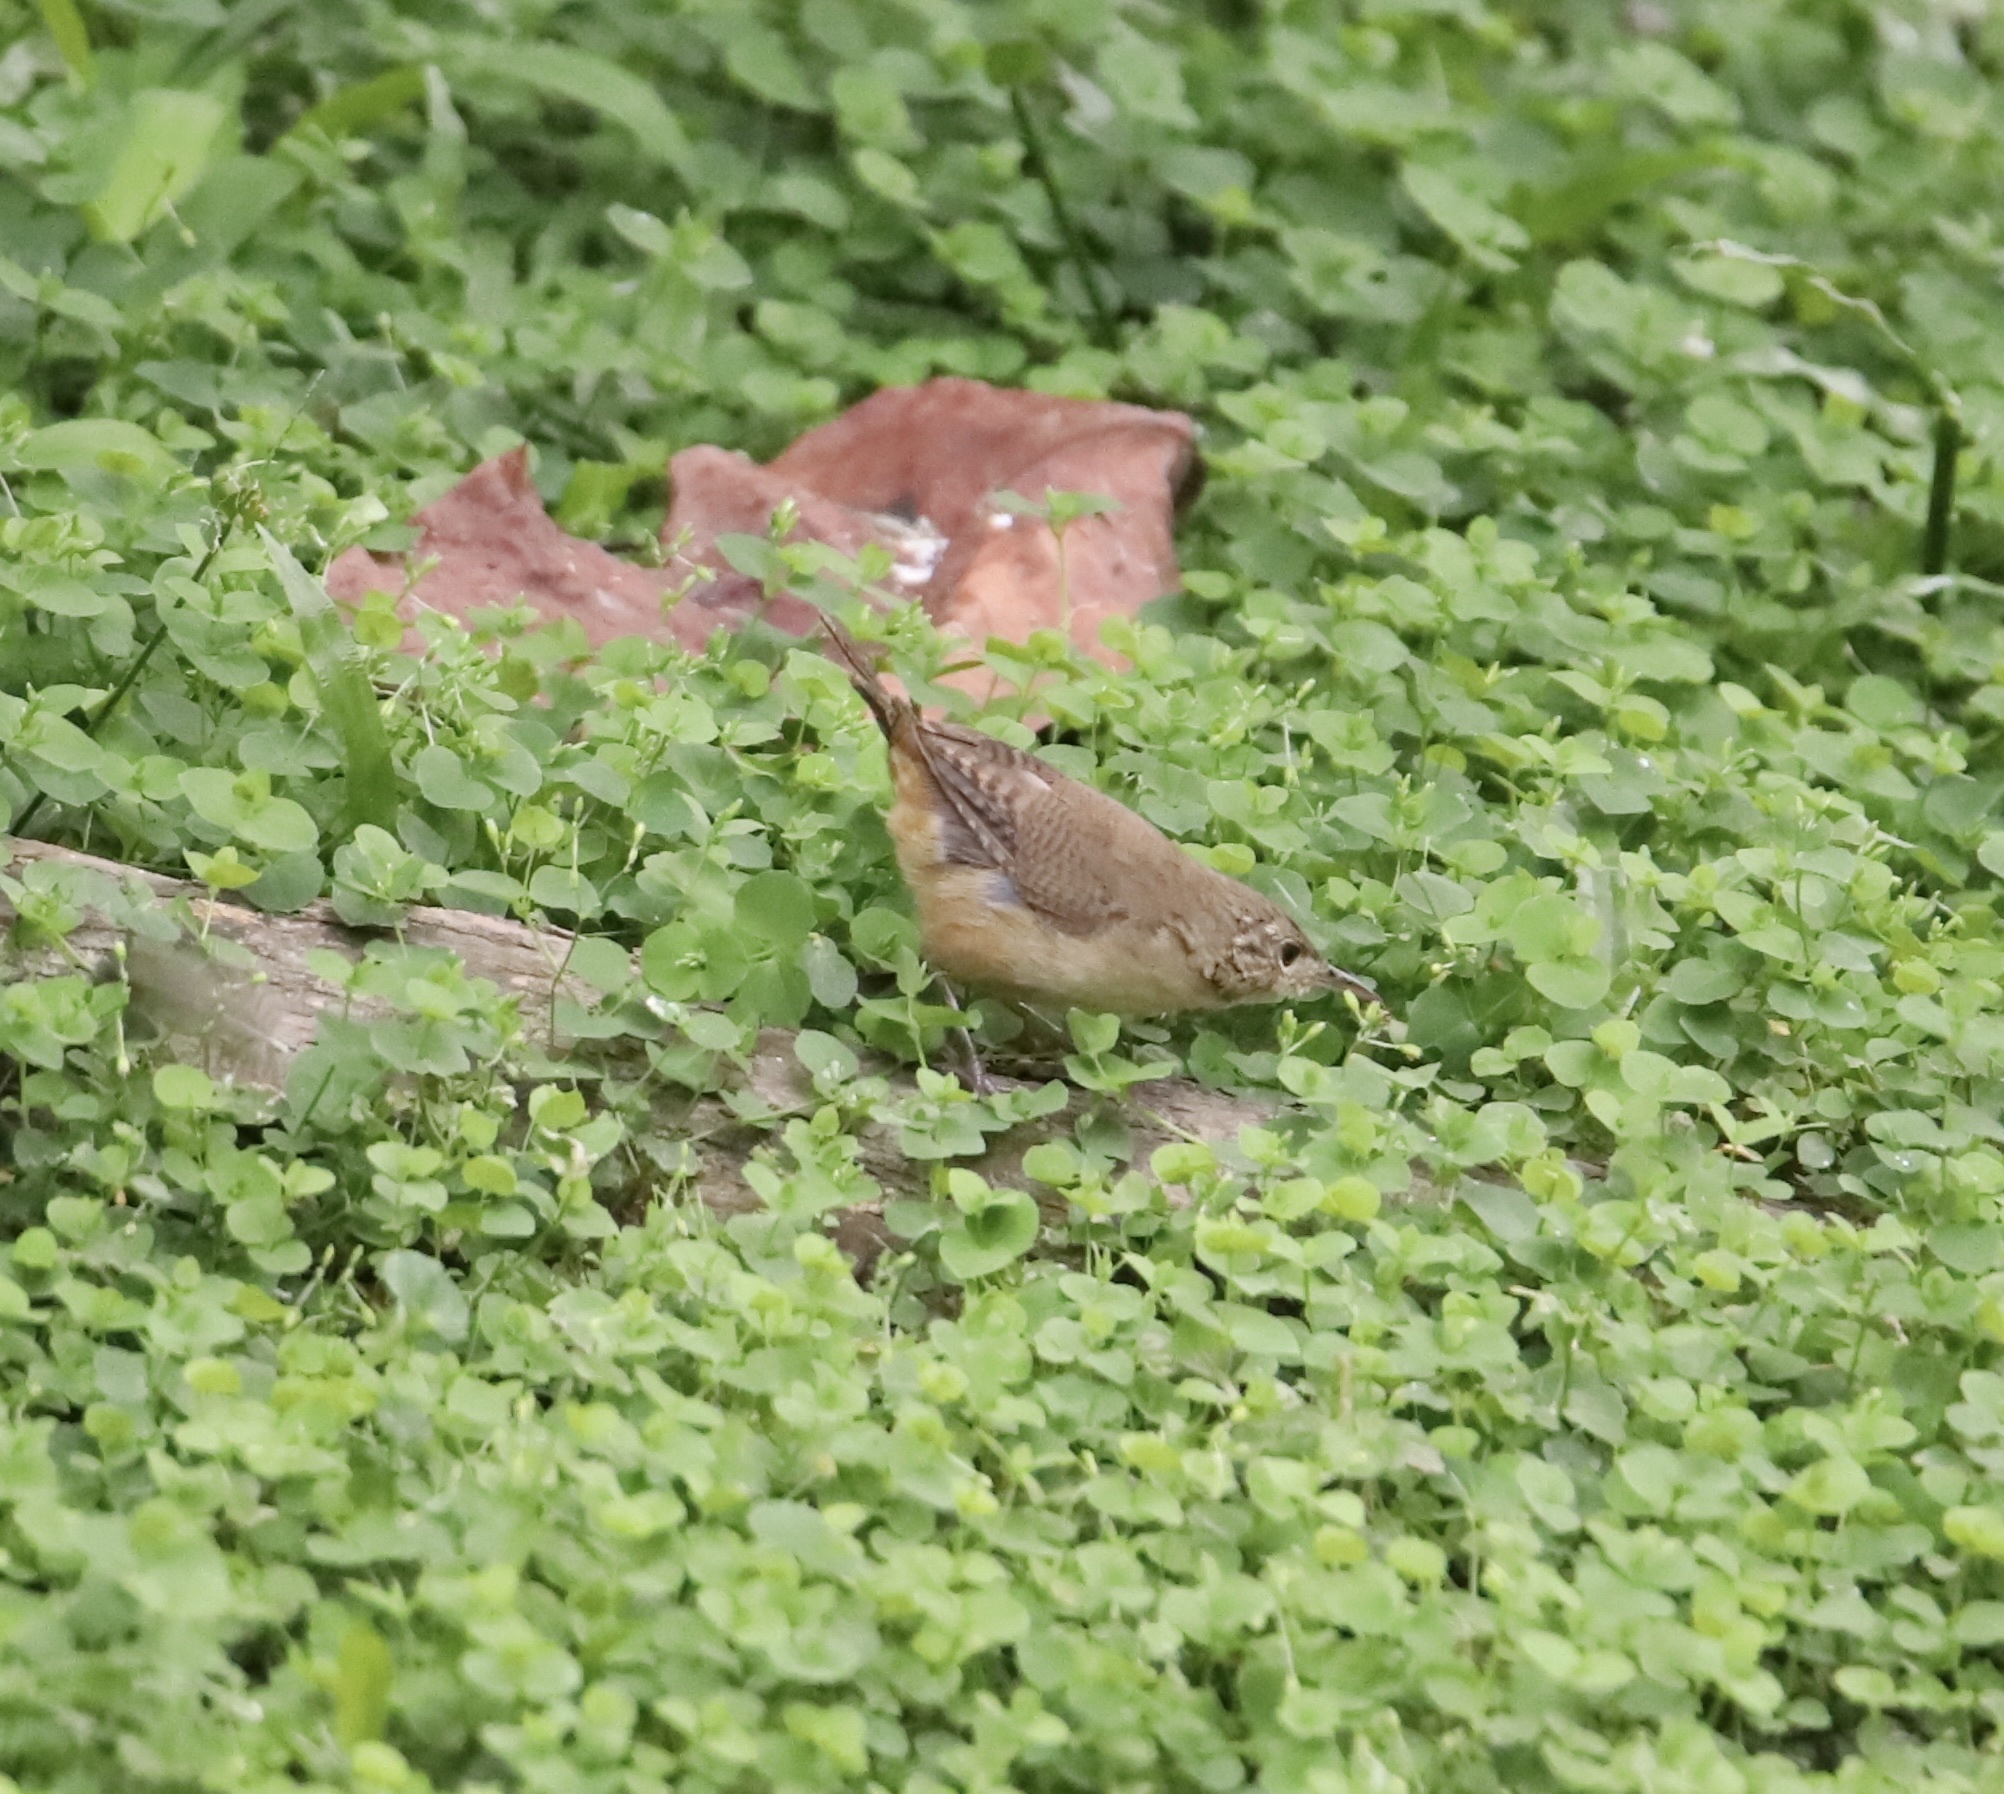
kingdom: Animalia
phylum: Chordata
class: Aves
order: Passeriformes
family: Troglodytidae
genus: Troglodytes
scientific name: Troglodytes aedon
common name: House wren
